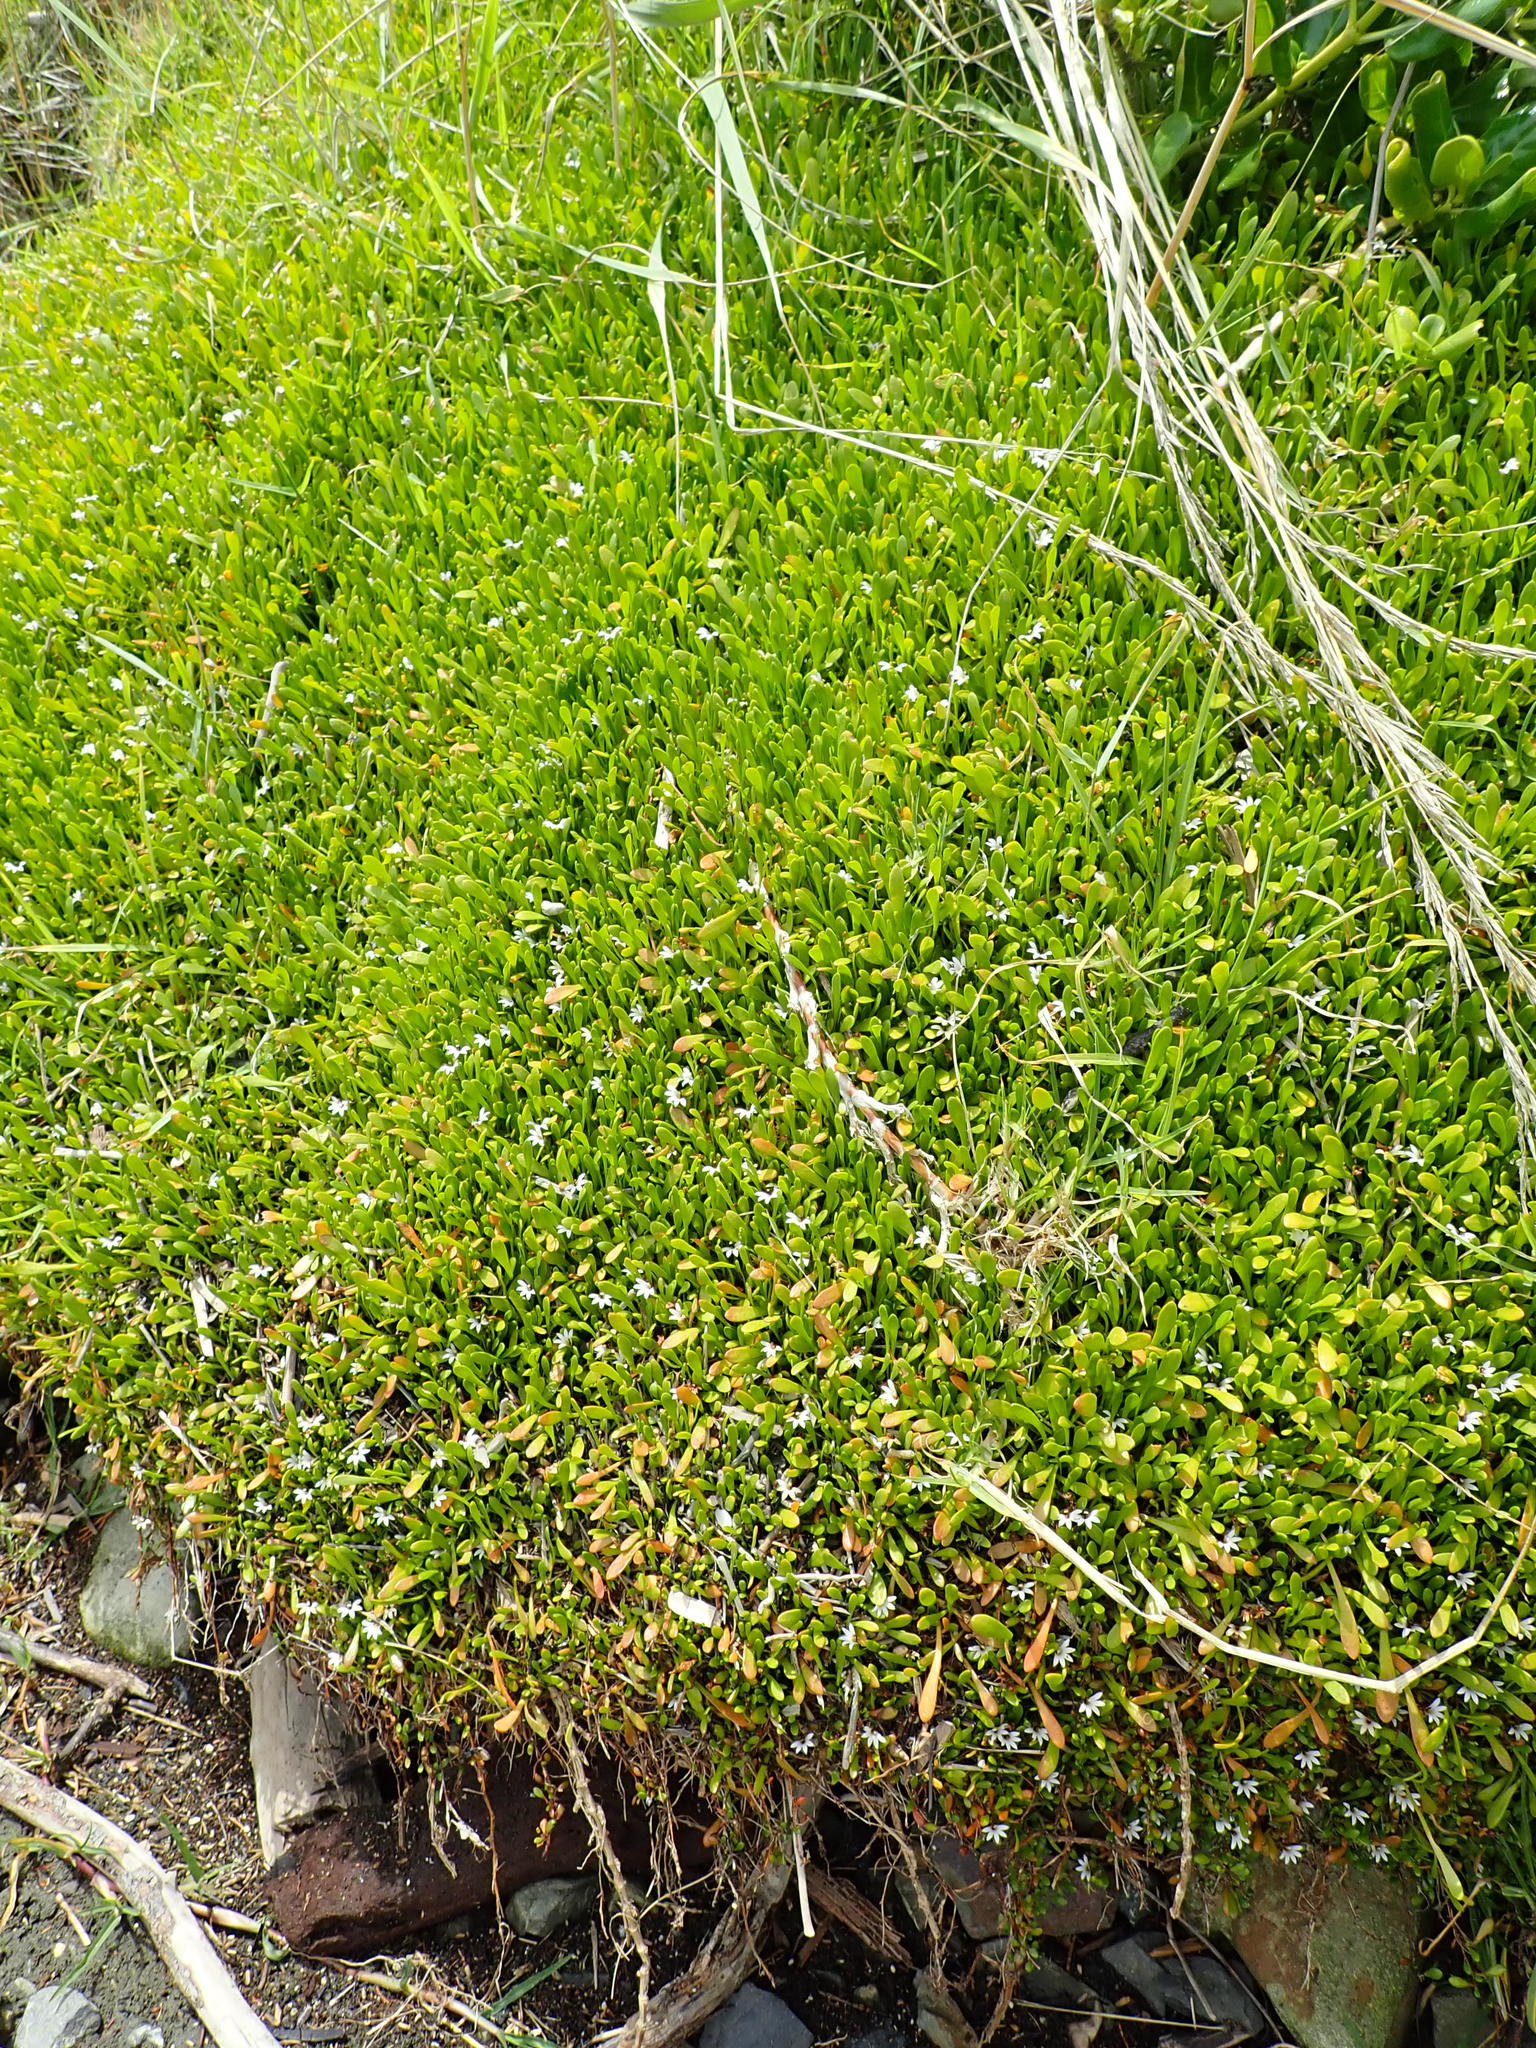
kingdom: Plantae
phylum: Tracheophyta
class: Magnoliopsida
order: Asterales
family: Goodeniaceae
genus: Goodenia
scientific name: Goodenia radicans
